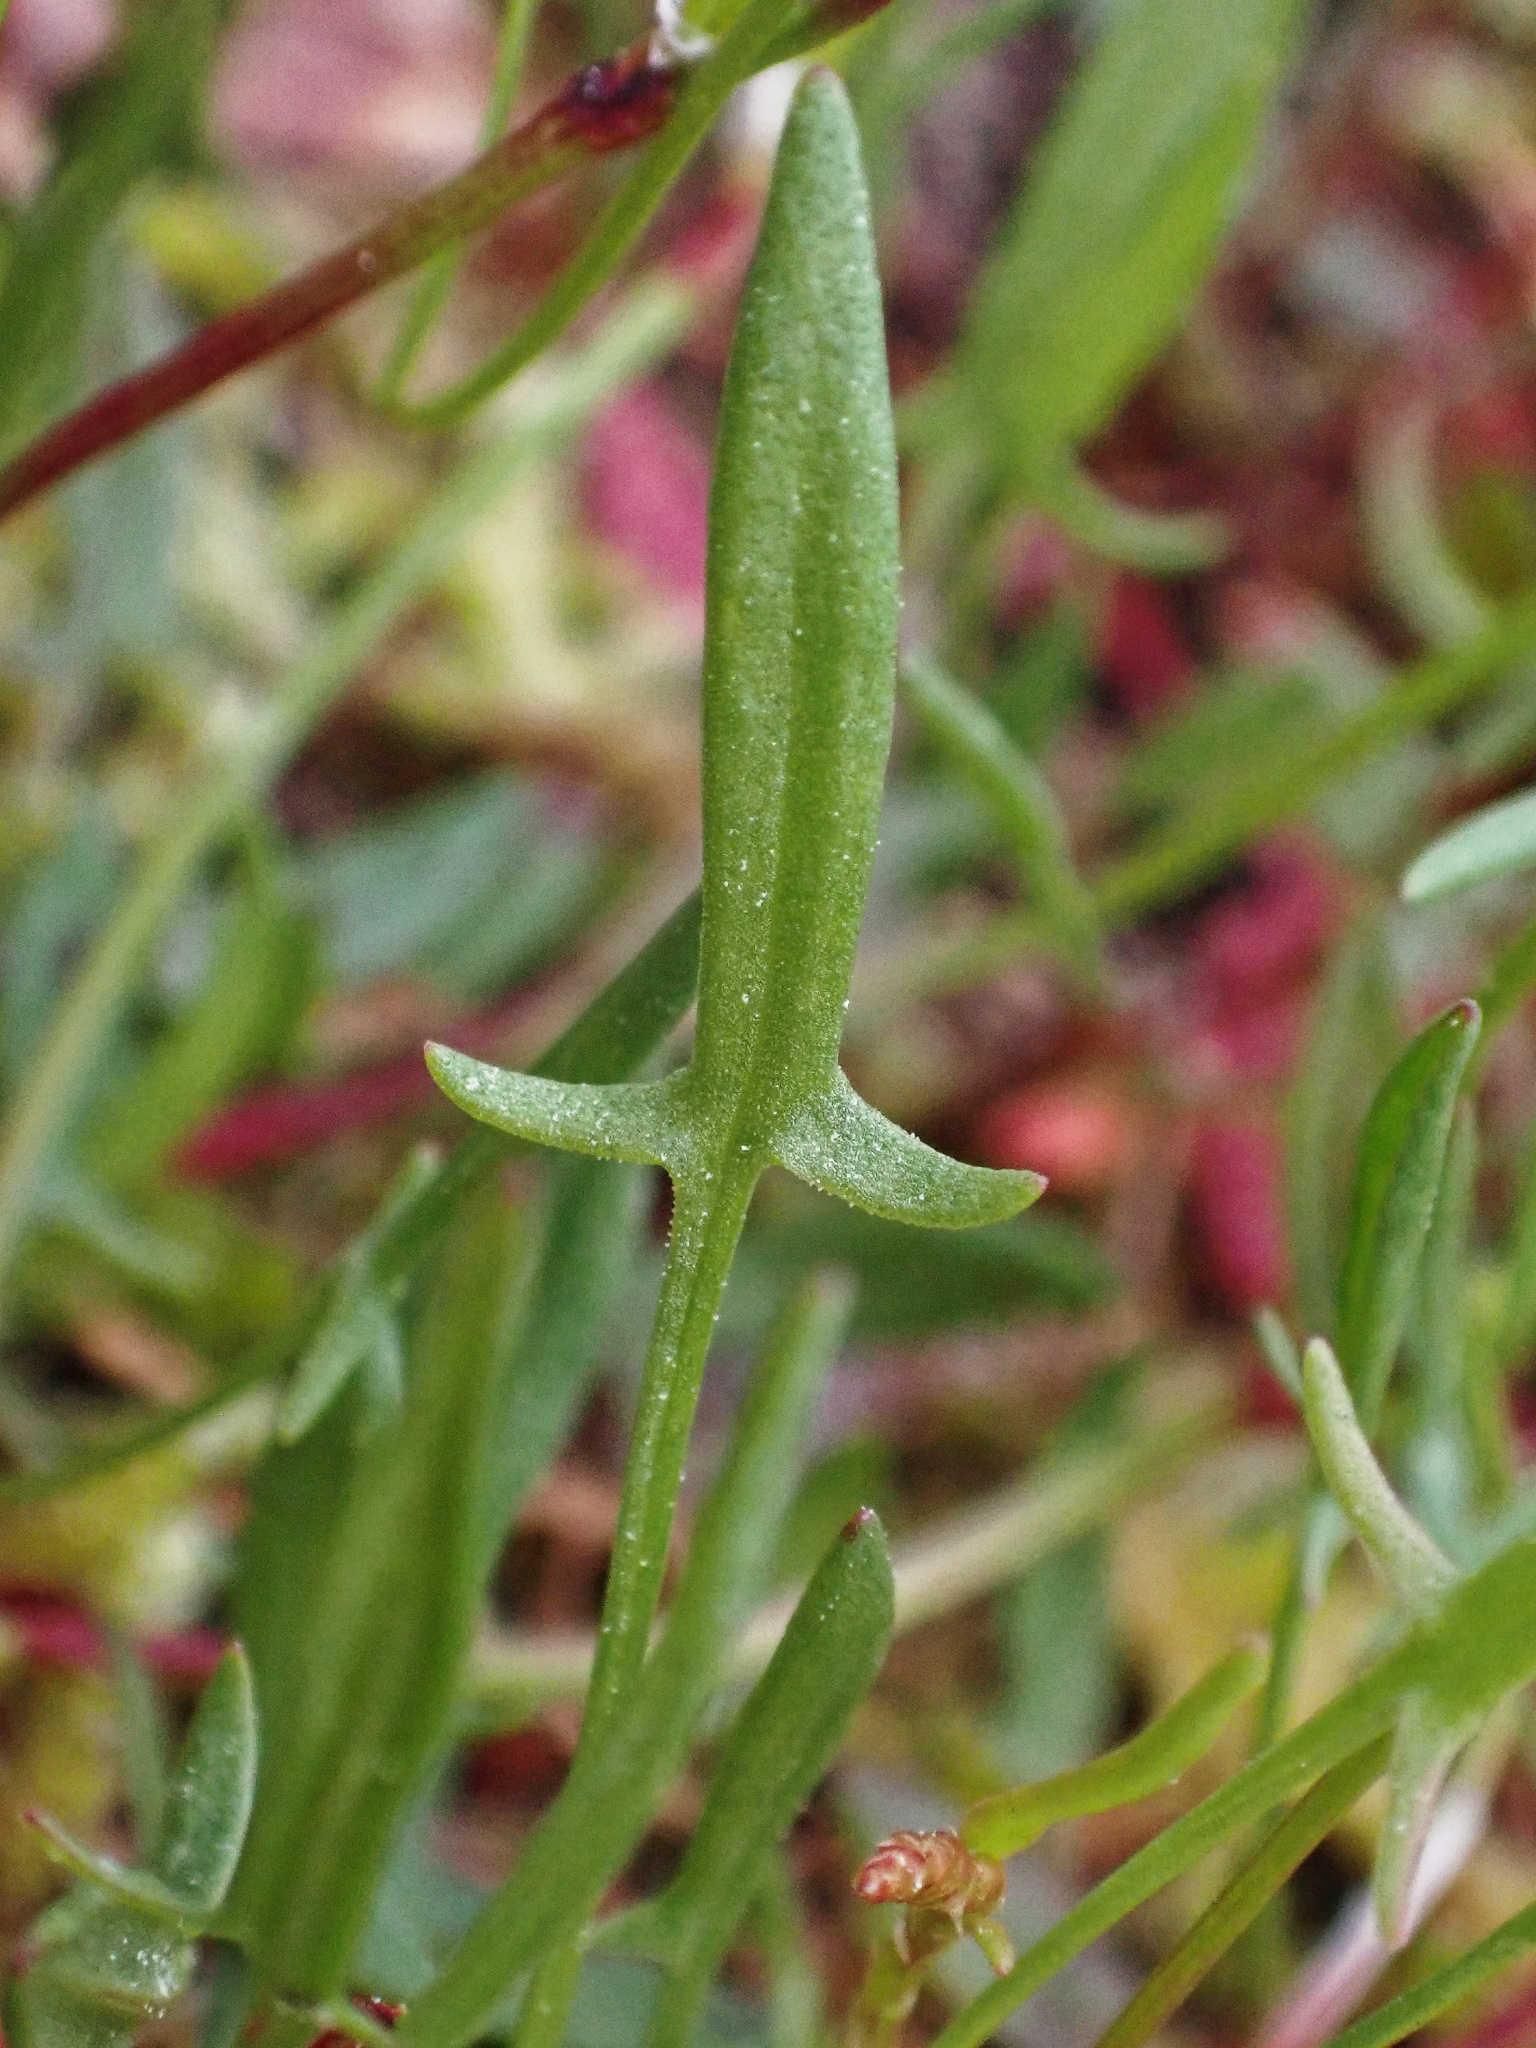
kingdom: Plantae
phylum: Tracheophyta
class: Magnoliopsida
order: Caryophyllales
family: Polygonaceae
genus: Rumex
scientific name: Rumex acetosella
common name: Common sheep sorrel
